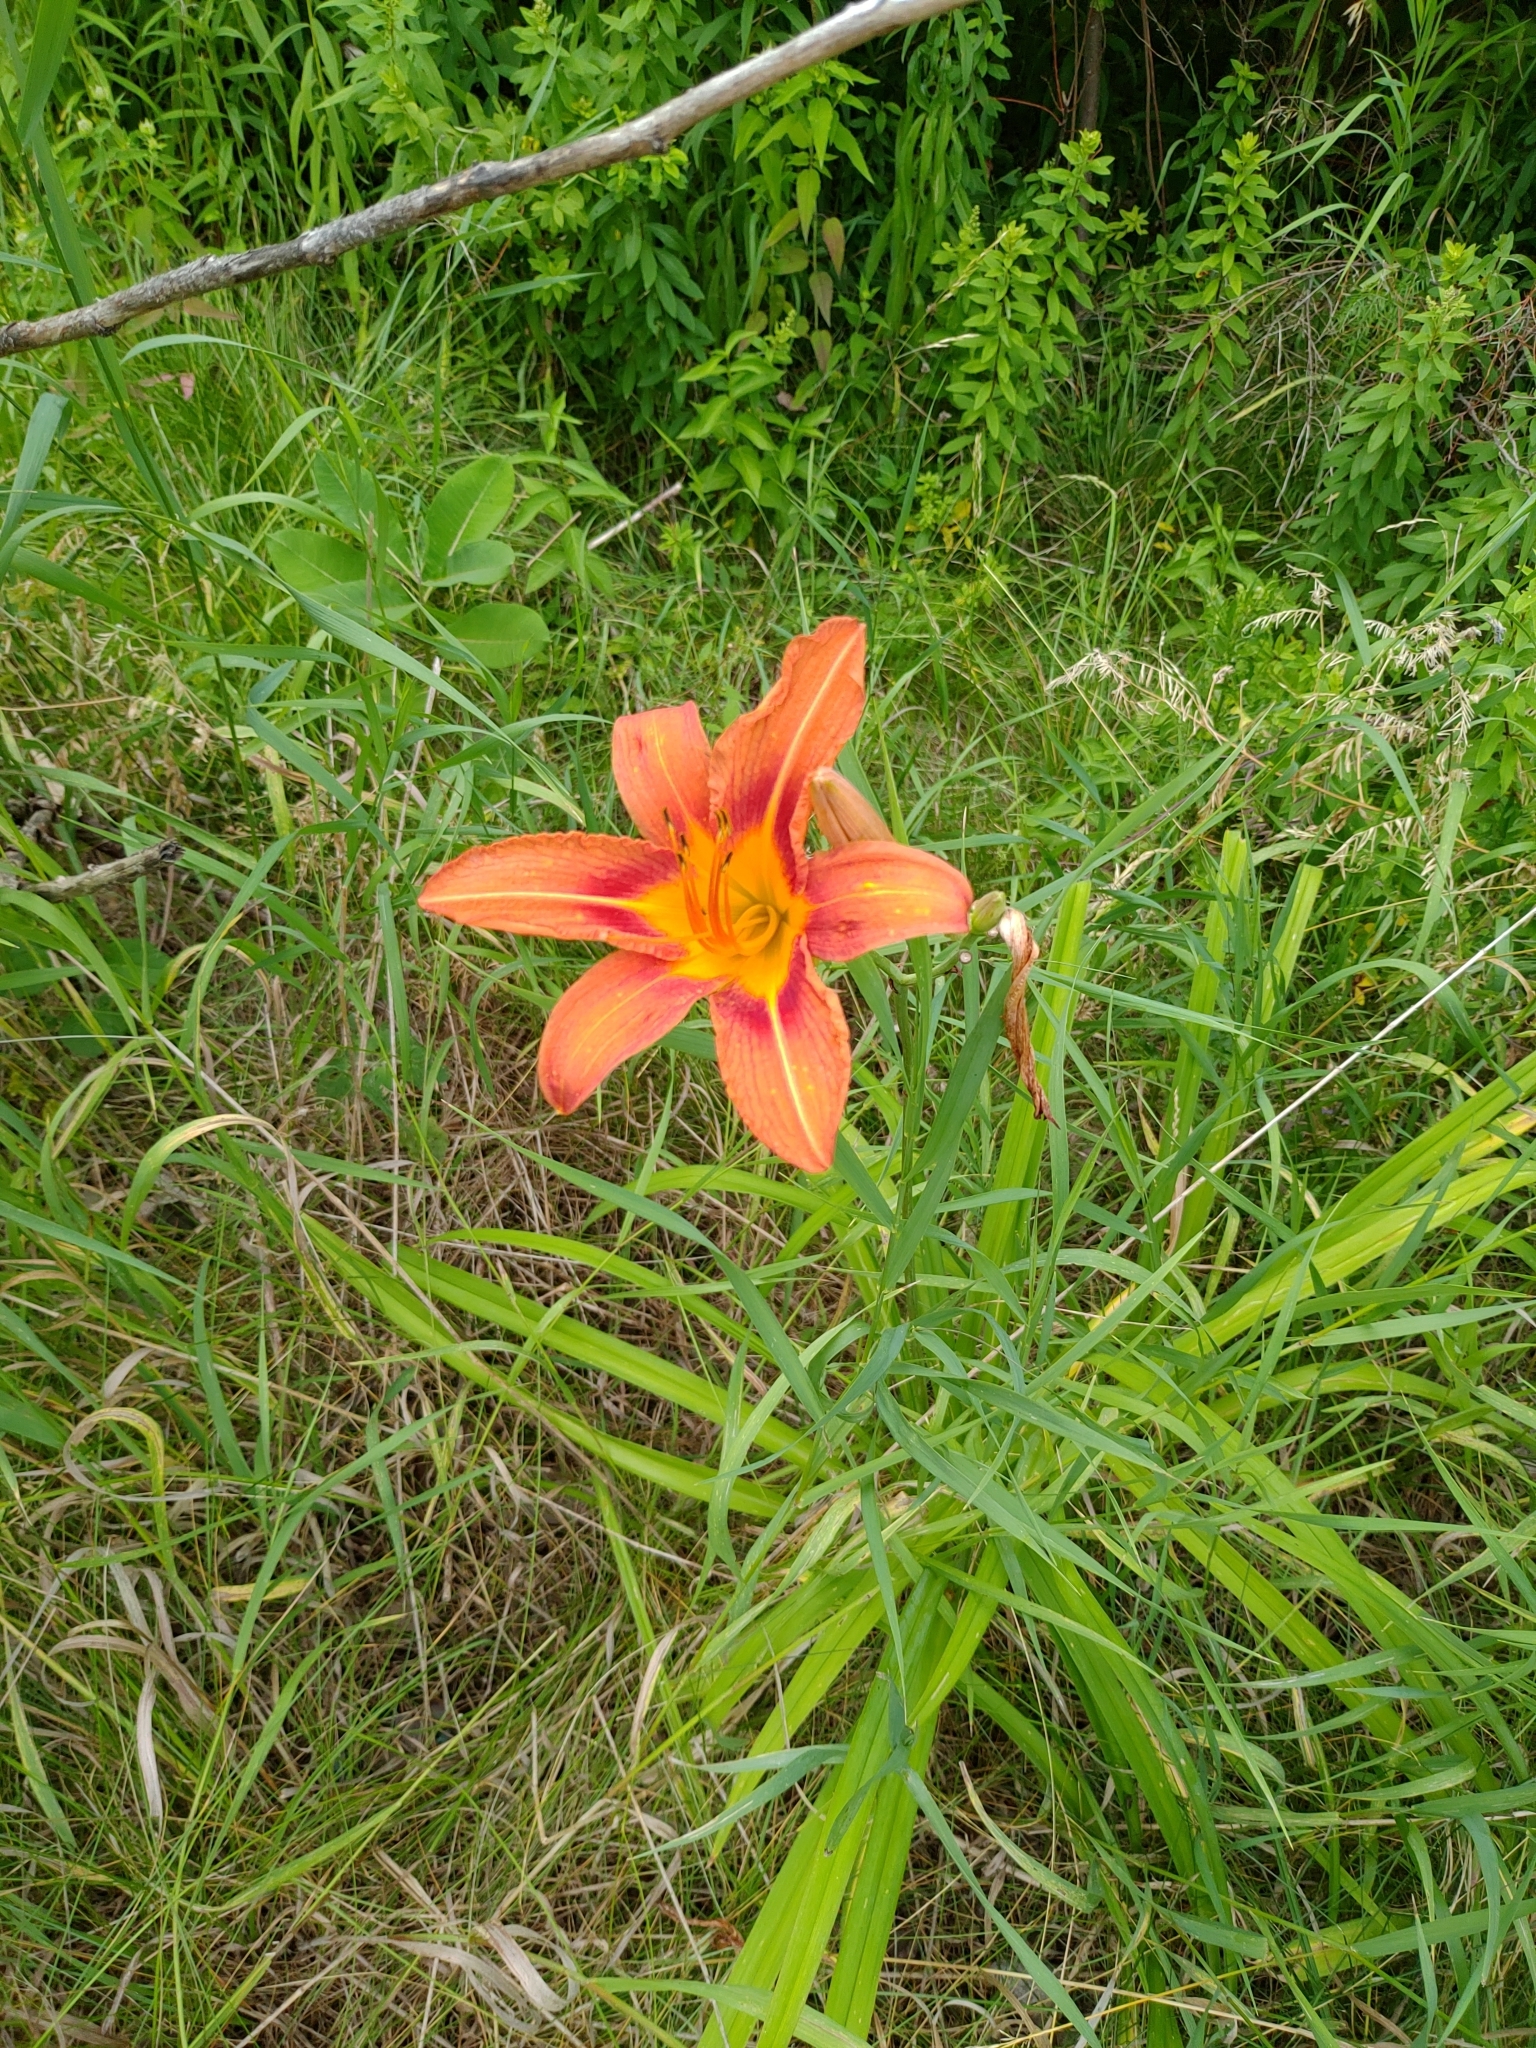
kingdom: Plantae
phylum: Tracheophyta
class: Liliopsida
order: Asparagales
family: Asphodelaceae
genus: Hemerocallis
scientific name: Hemerocallis fulva
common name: Orange day-lily
